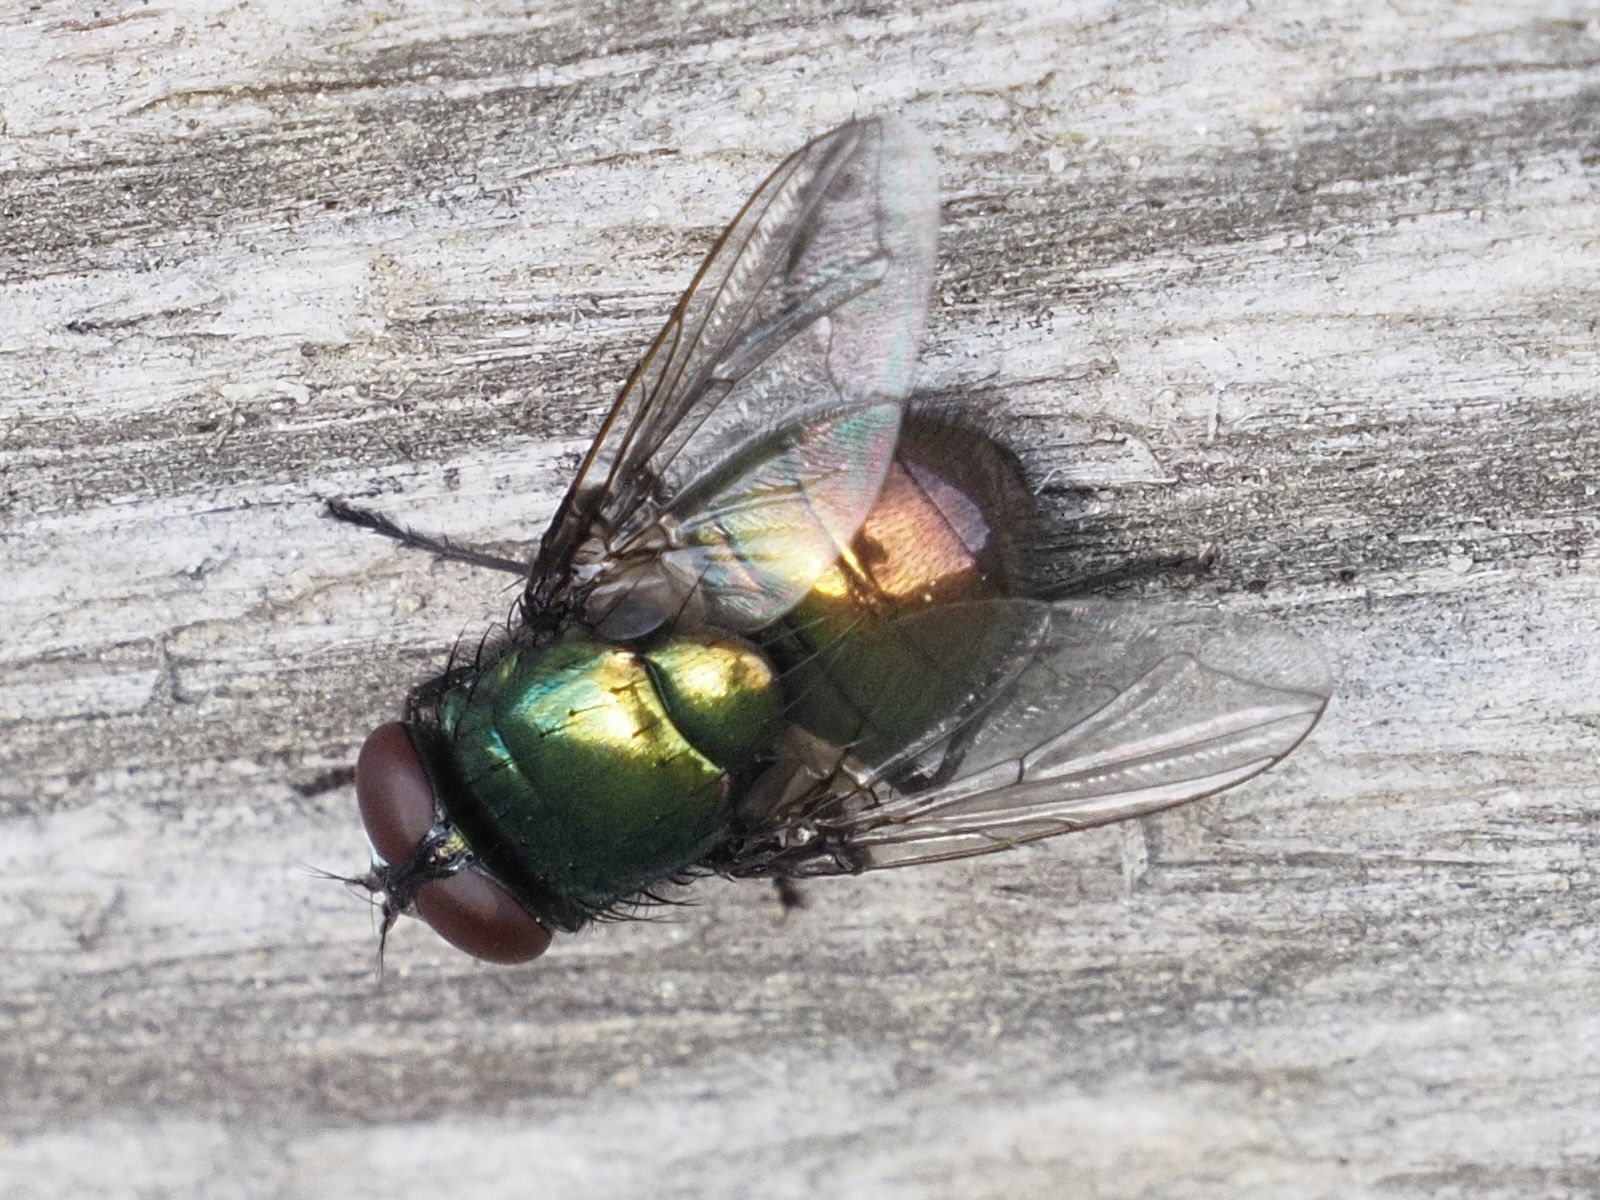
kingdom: Animalia
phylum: Arthropoda
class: Insecta
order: Diptera
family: Muscidae
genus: Neomyia
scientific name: Neomyia cornicina
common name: House fly
